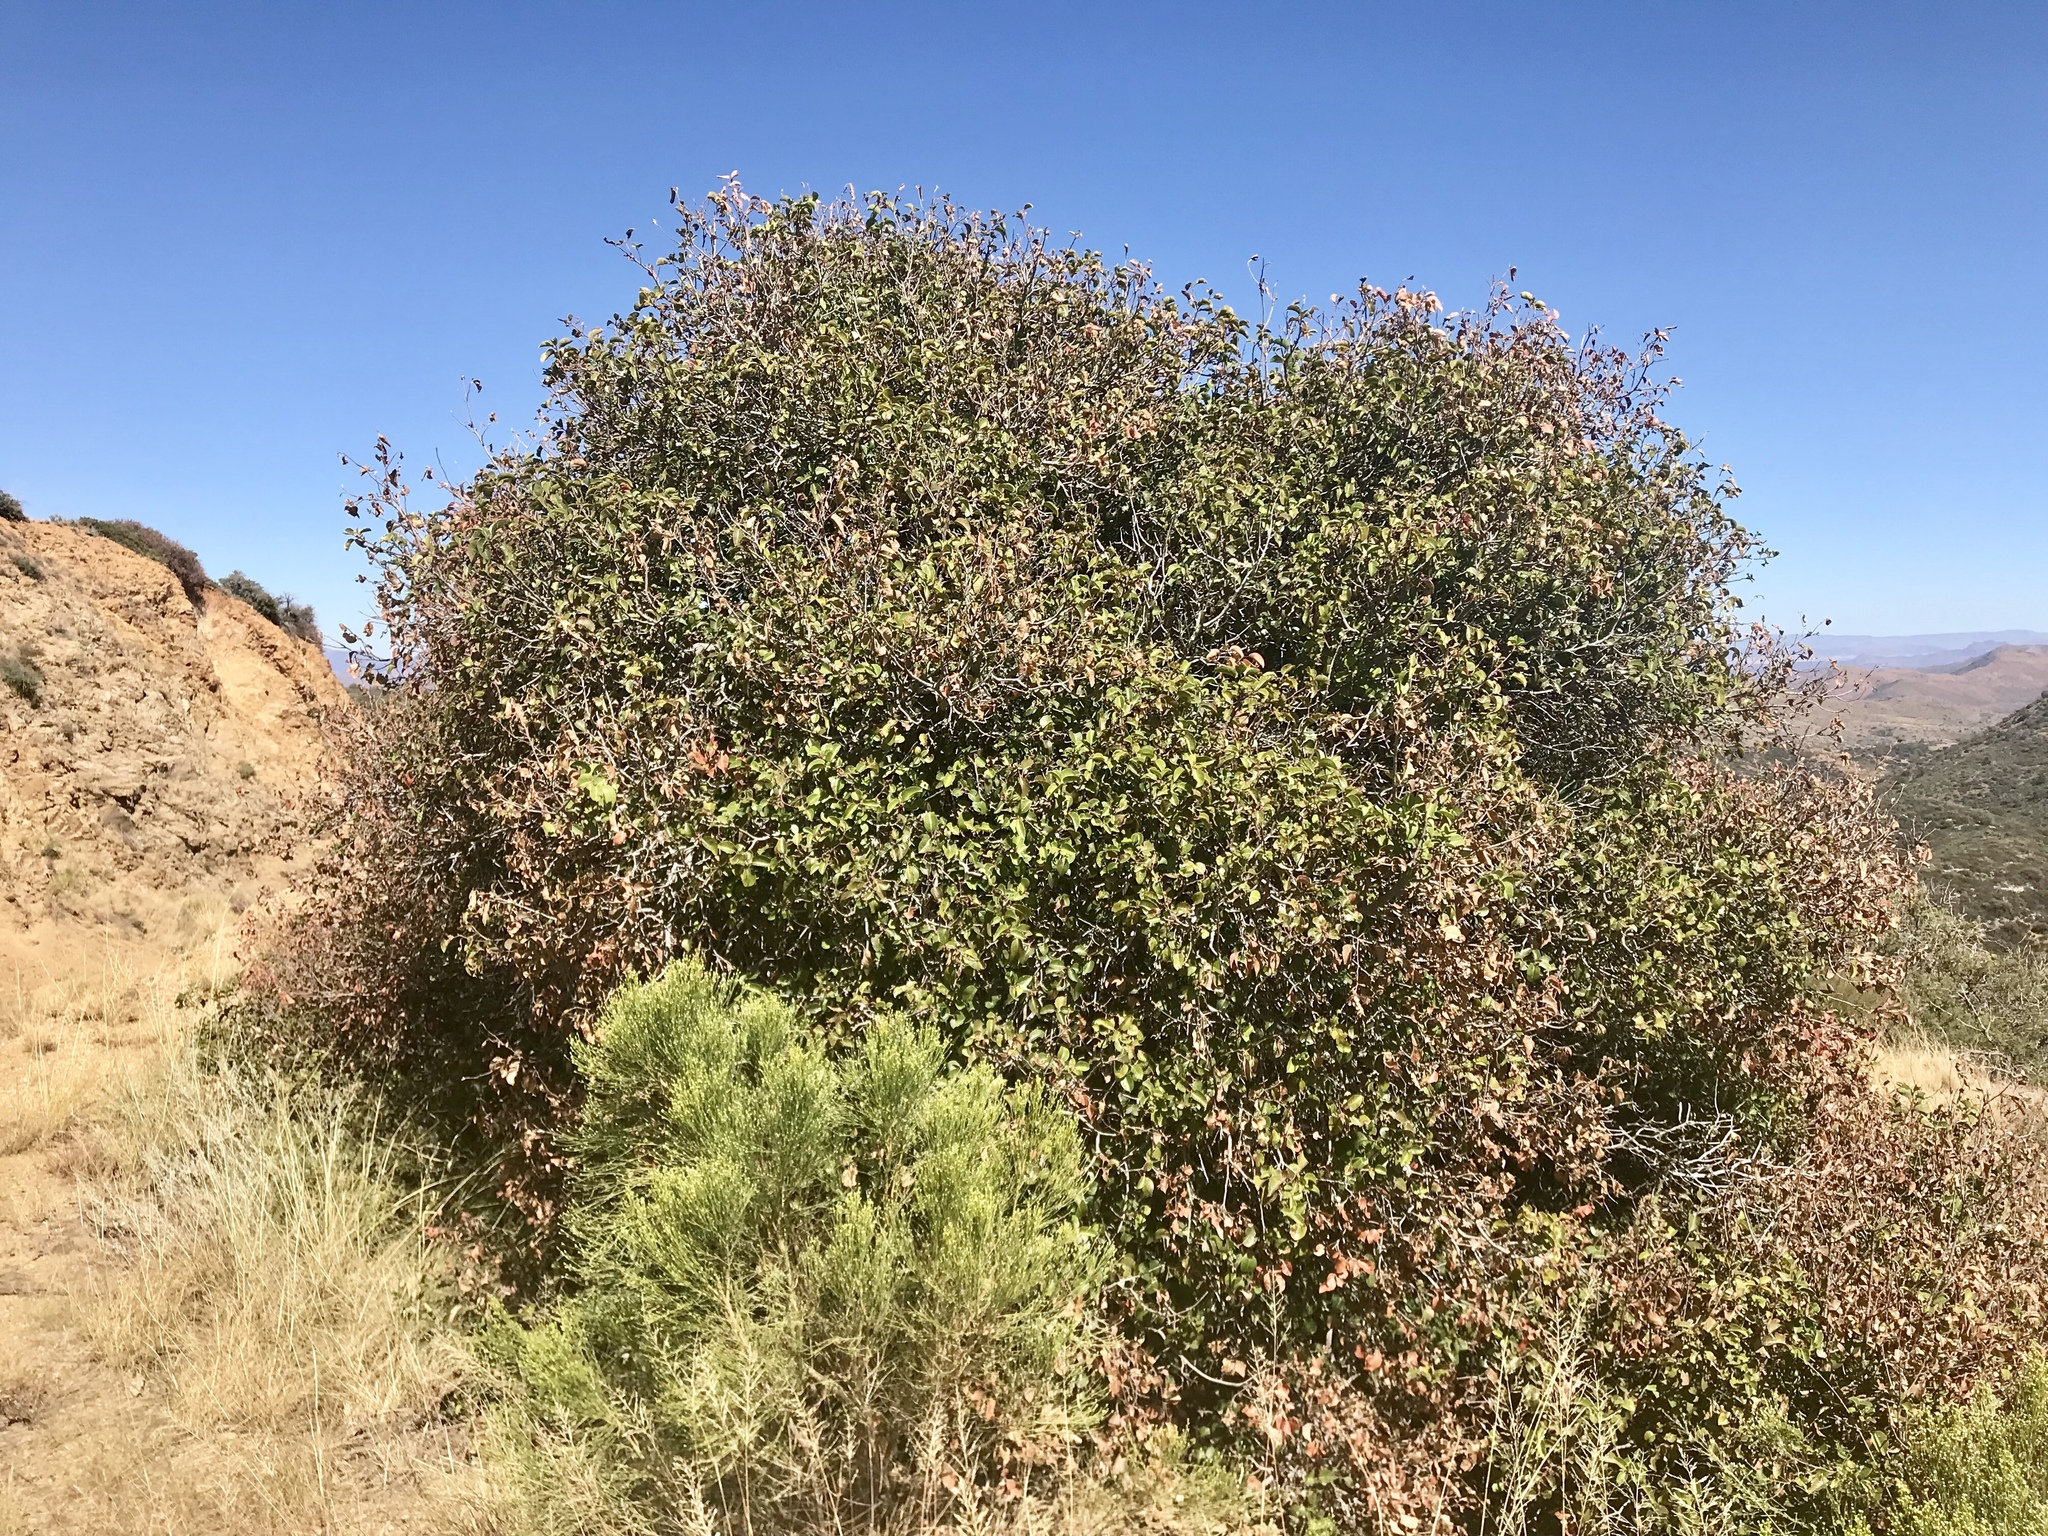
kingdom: Plantae
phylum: Tracheophyta
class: Magnoliopsida
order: Sapindales
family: Anacardiaceae
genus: Rhus
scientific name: Rhus ovata
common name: Sugar sumac
